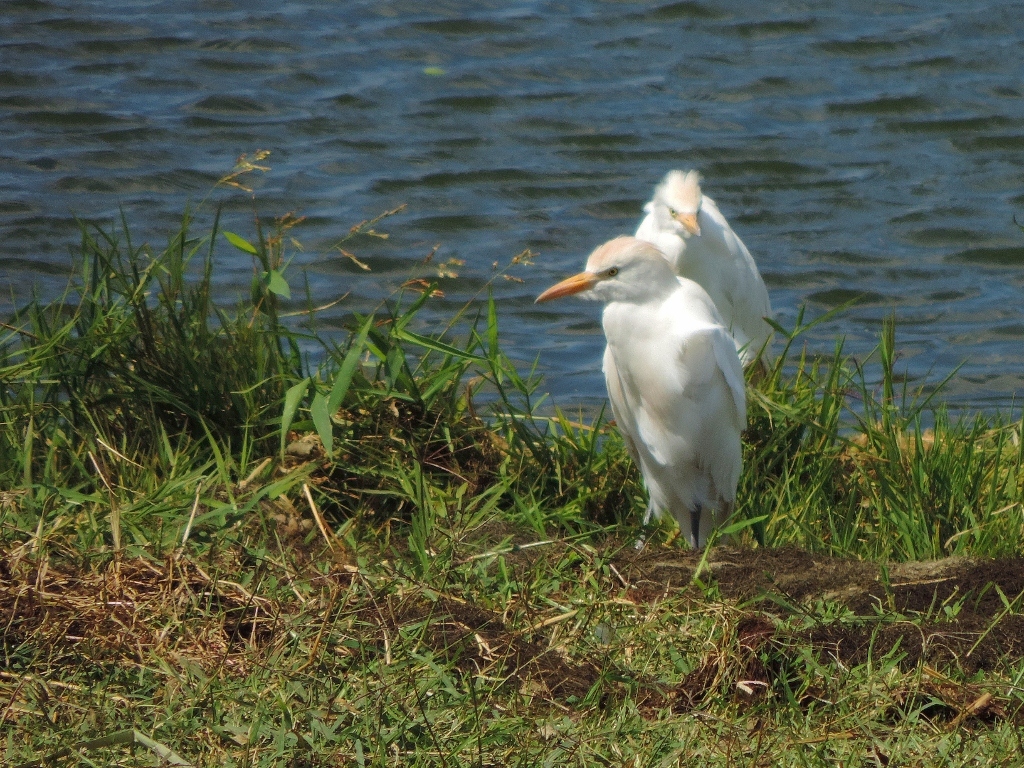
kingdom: Animalia
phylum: Chordata
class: Aves
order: Pelecaniformes
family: Ardeidae
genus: Bubulcus
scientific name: Bubulcus ibis
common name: Cattle egret
